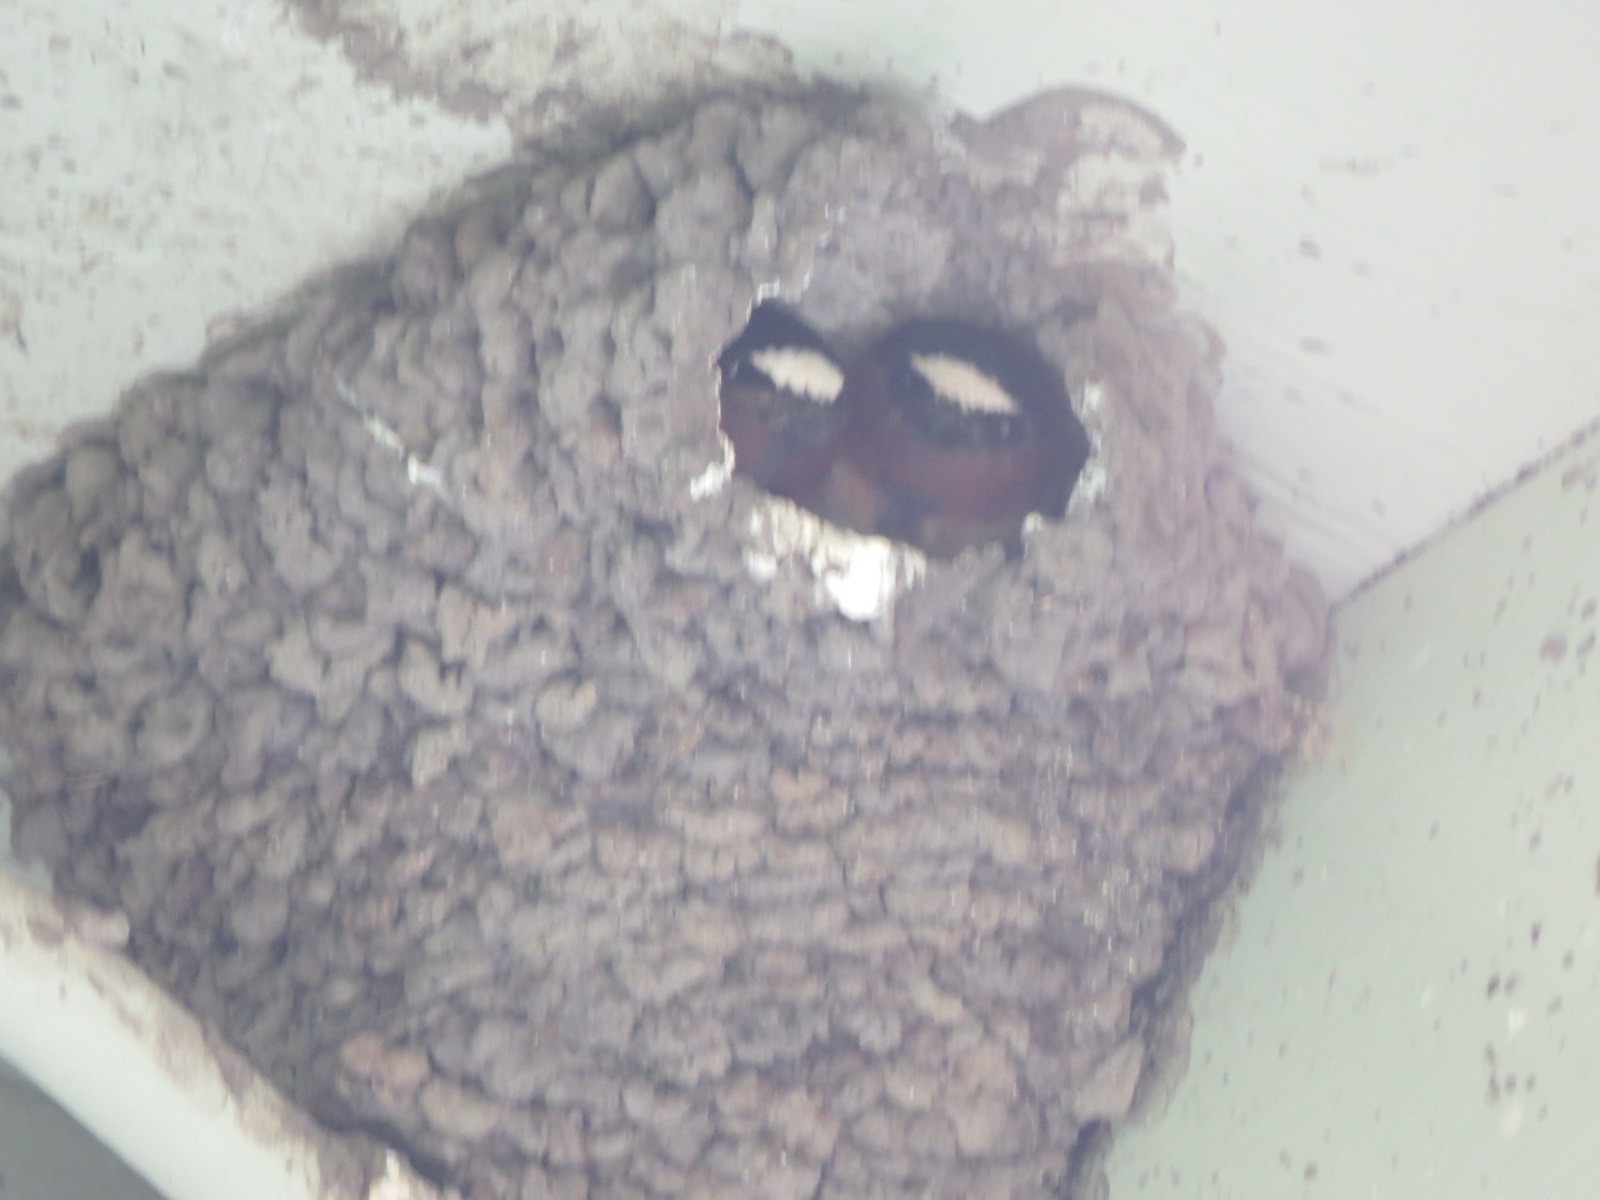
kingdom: Animalia
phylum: Chordata
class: Aves
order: Passeriformes
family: Hirundinidae
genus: Petrochelidon
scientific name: Petrochelidon pyrrhonota
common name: American cliff swallow
